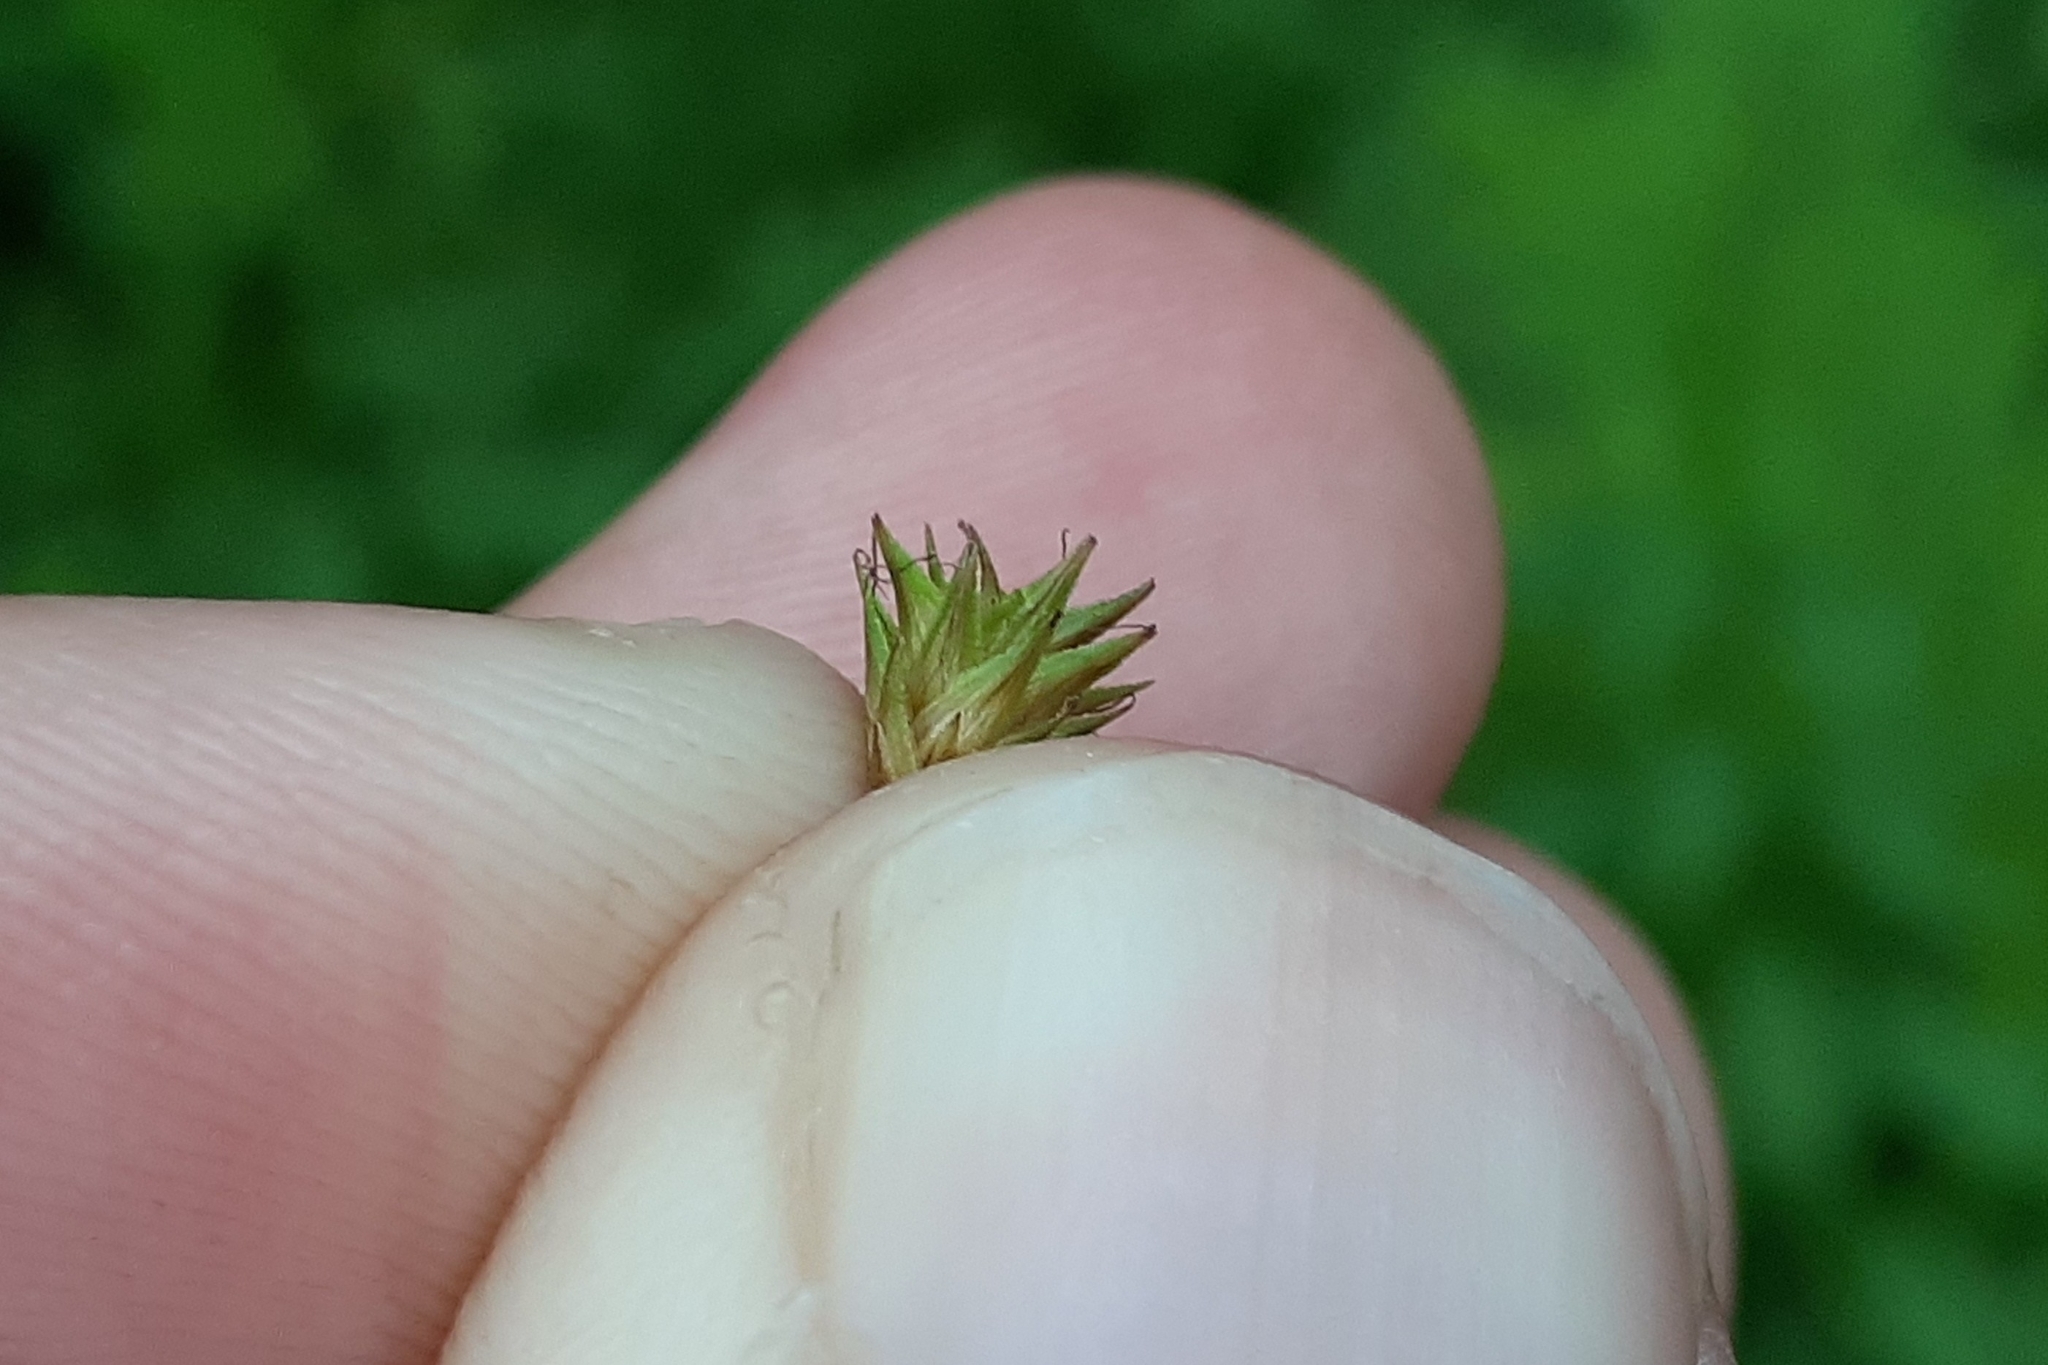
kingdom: Plantae
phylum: Tracheophyta
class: Liliopsida
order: Poales
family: Cyperaceae
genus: Carex
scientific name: Carex tenera
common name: Broad-fruited sedge
